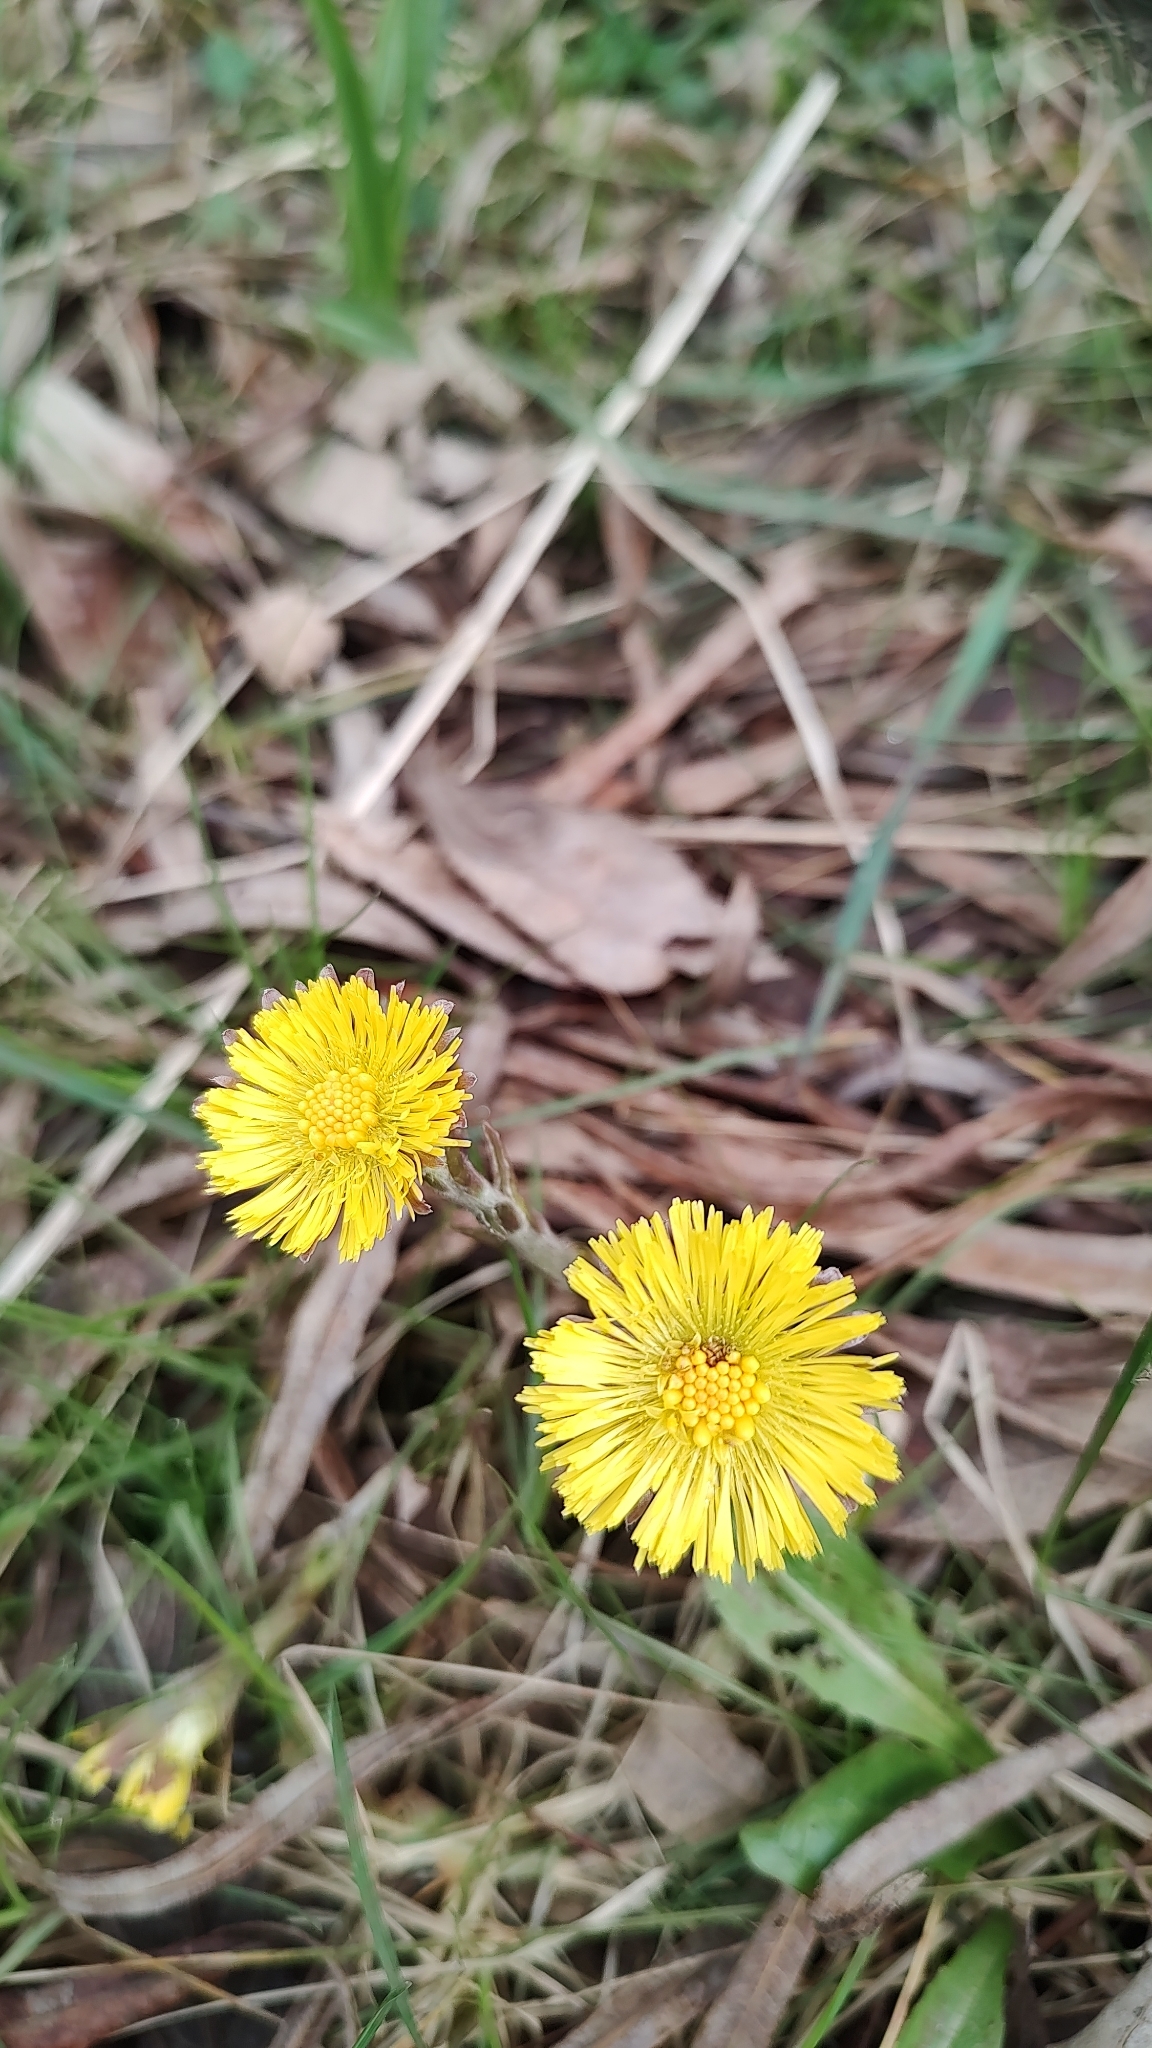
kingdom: Plantae
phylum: Tracheophyta
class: Magnoliopsida
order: Asterales
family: Asteraceae
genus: Tussilago
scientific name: Tussilago farfara
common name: Coltsfoot
